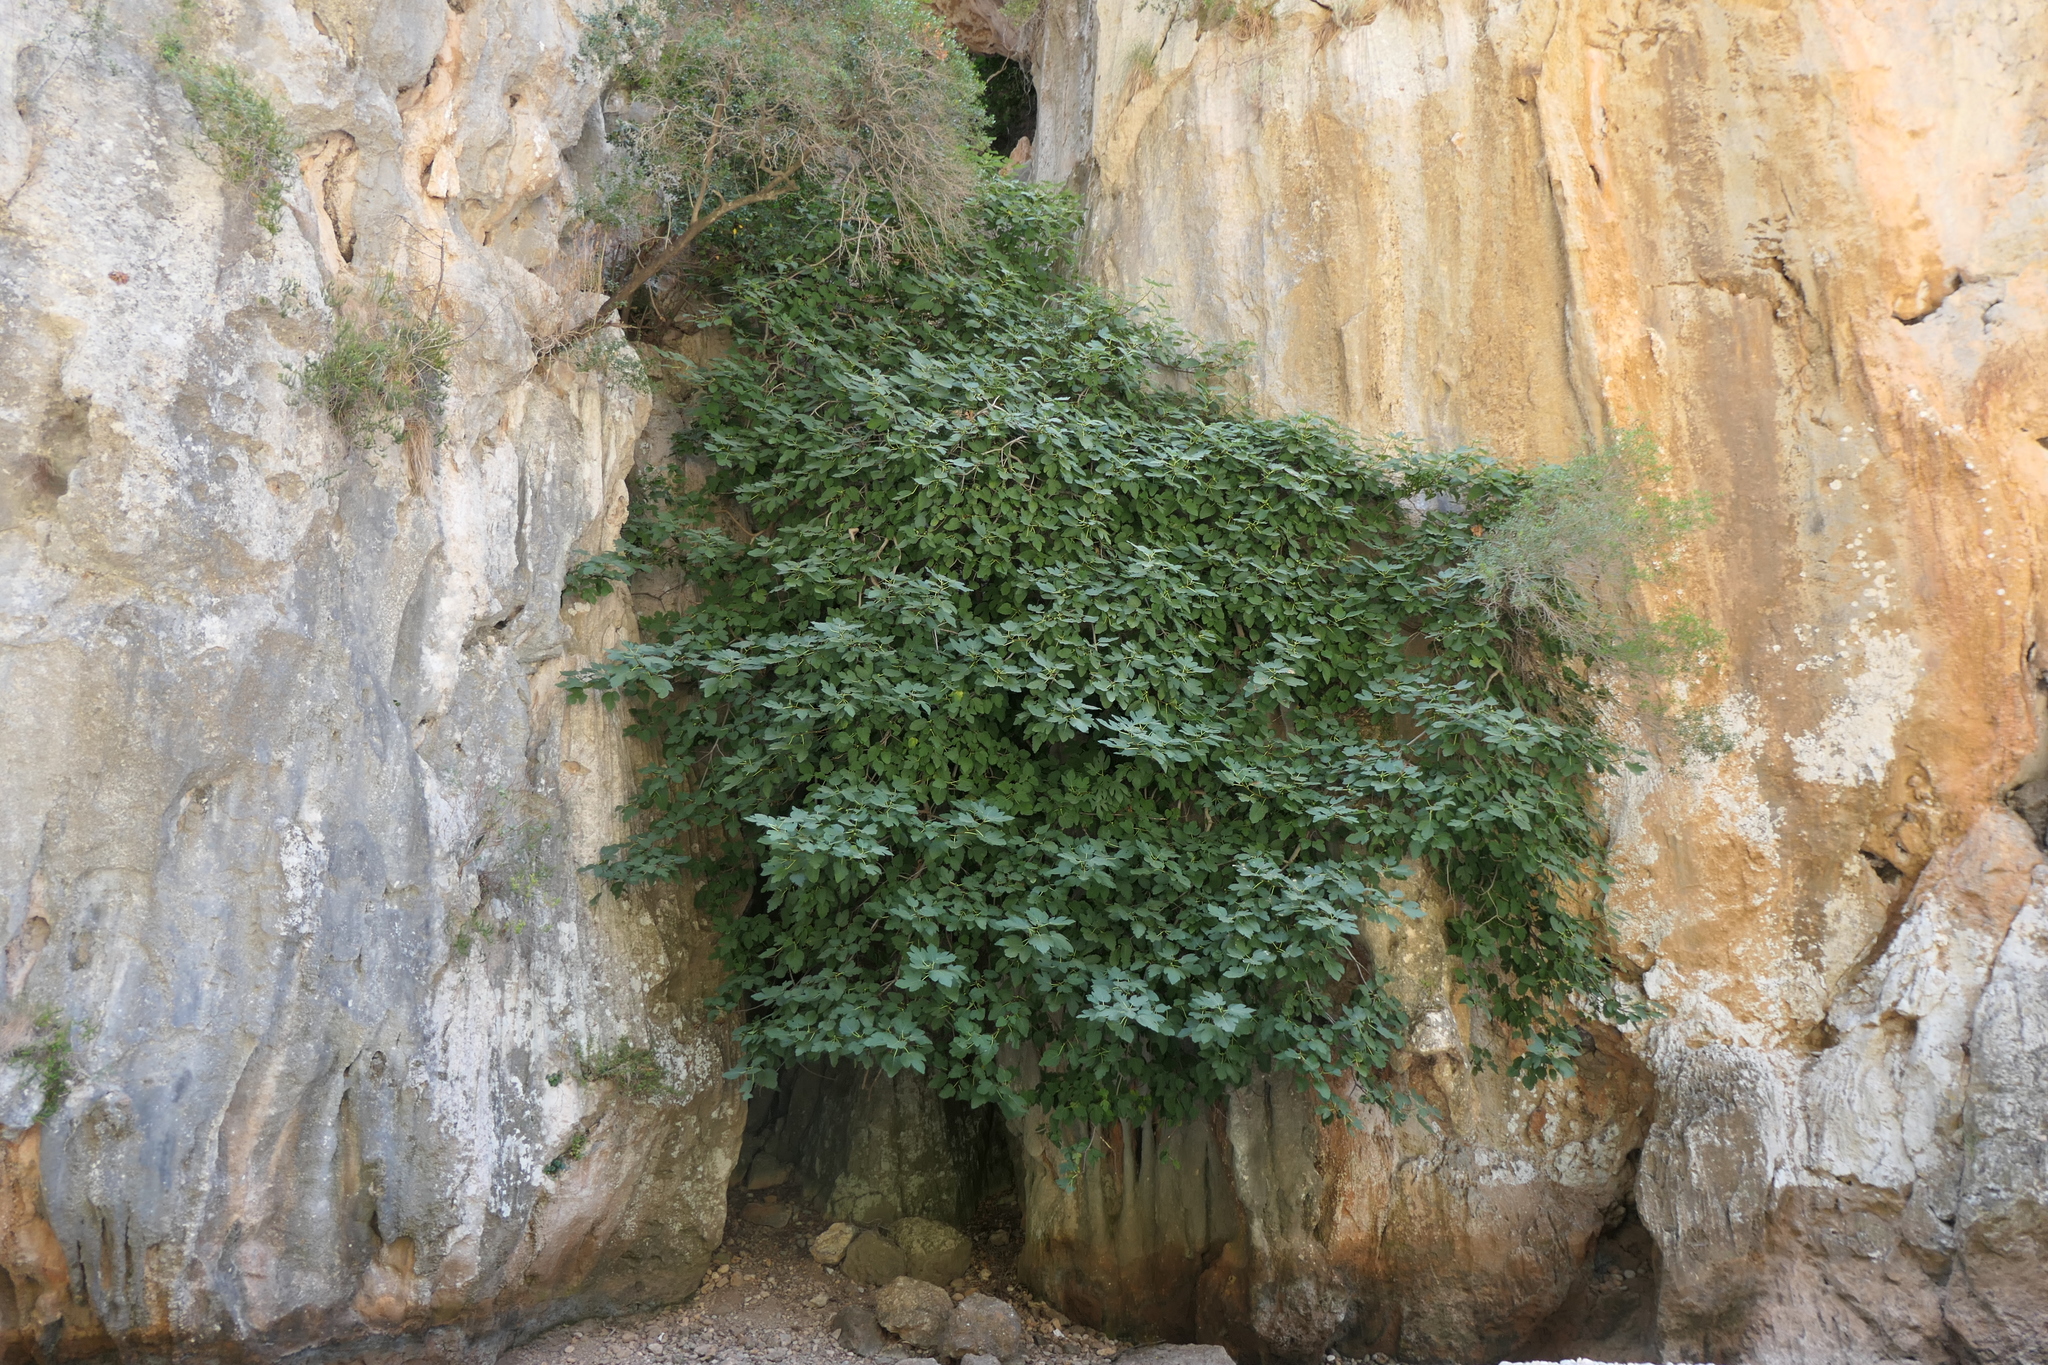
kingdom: Plantae
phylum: Tracheophyta
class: Magnoliopsida
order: Rosales
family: Moraceae
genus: Ficus
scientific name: Ficus carica
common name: Fig
